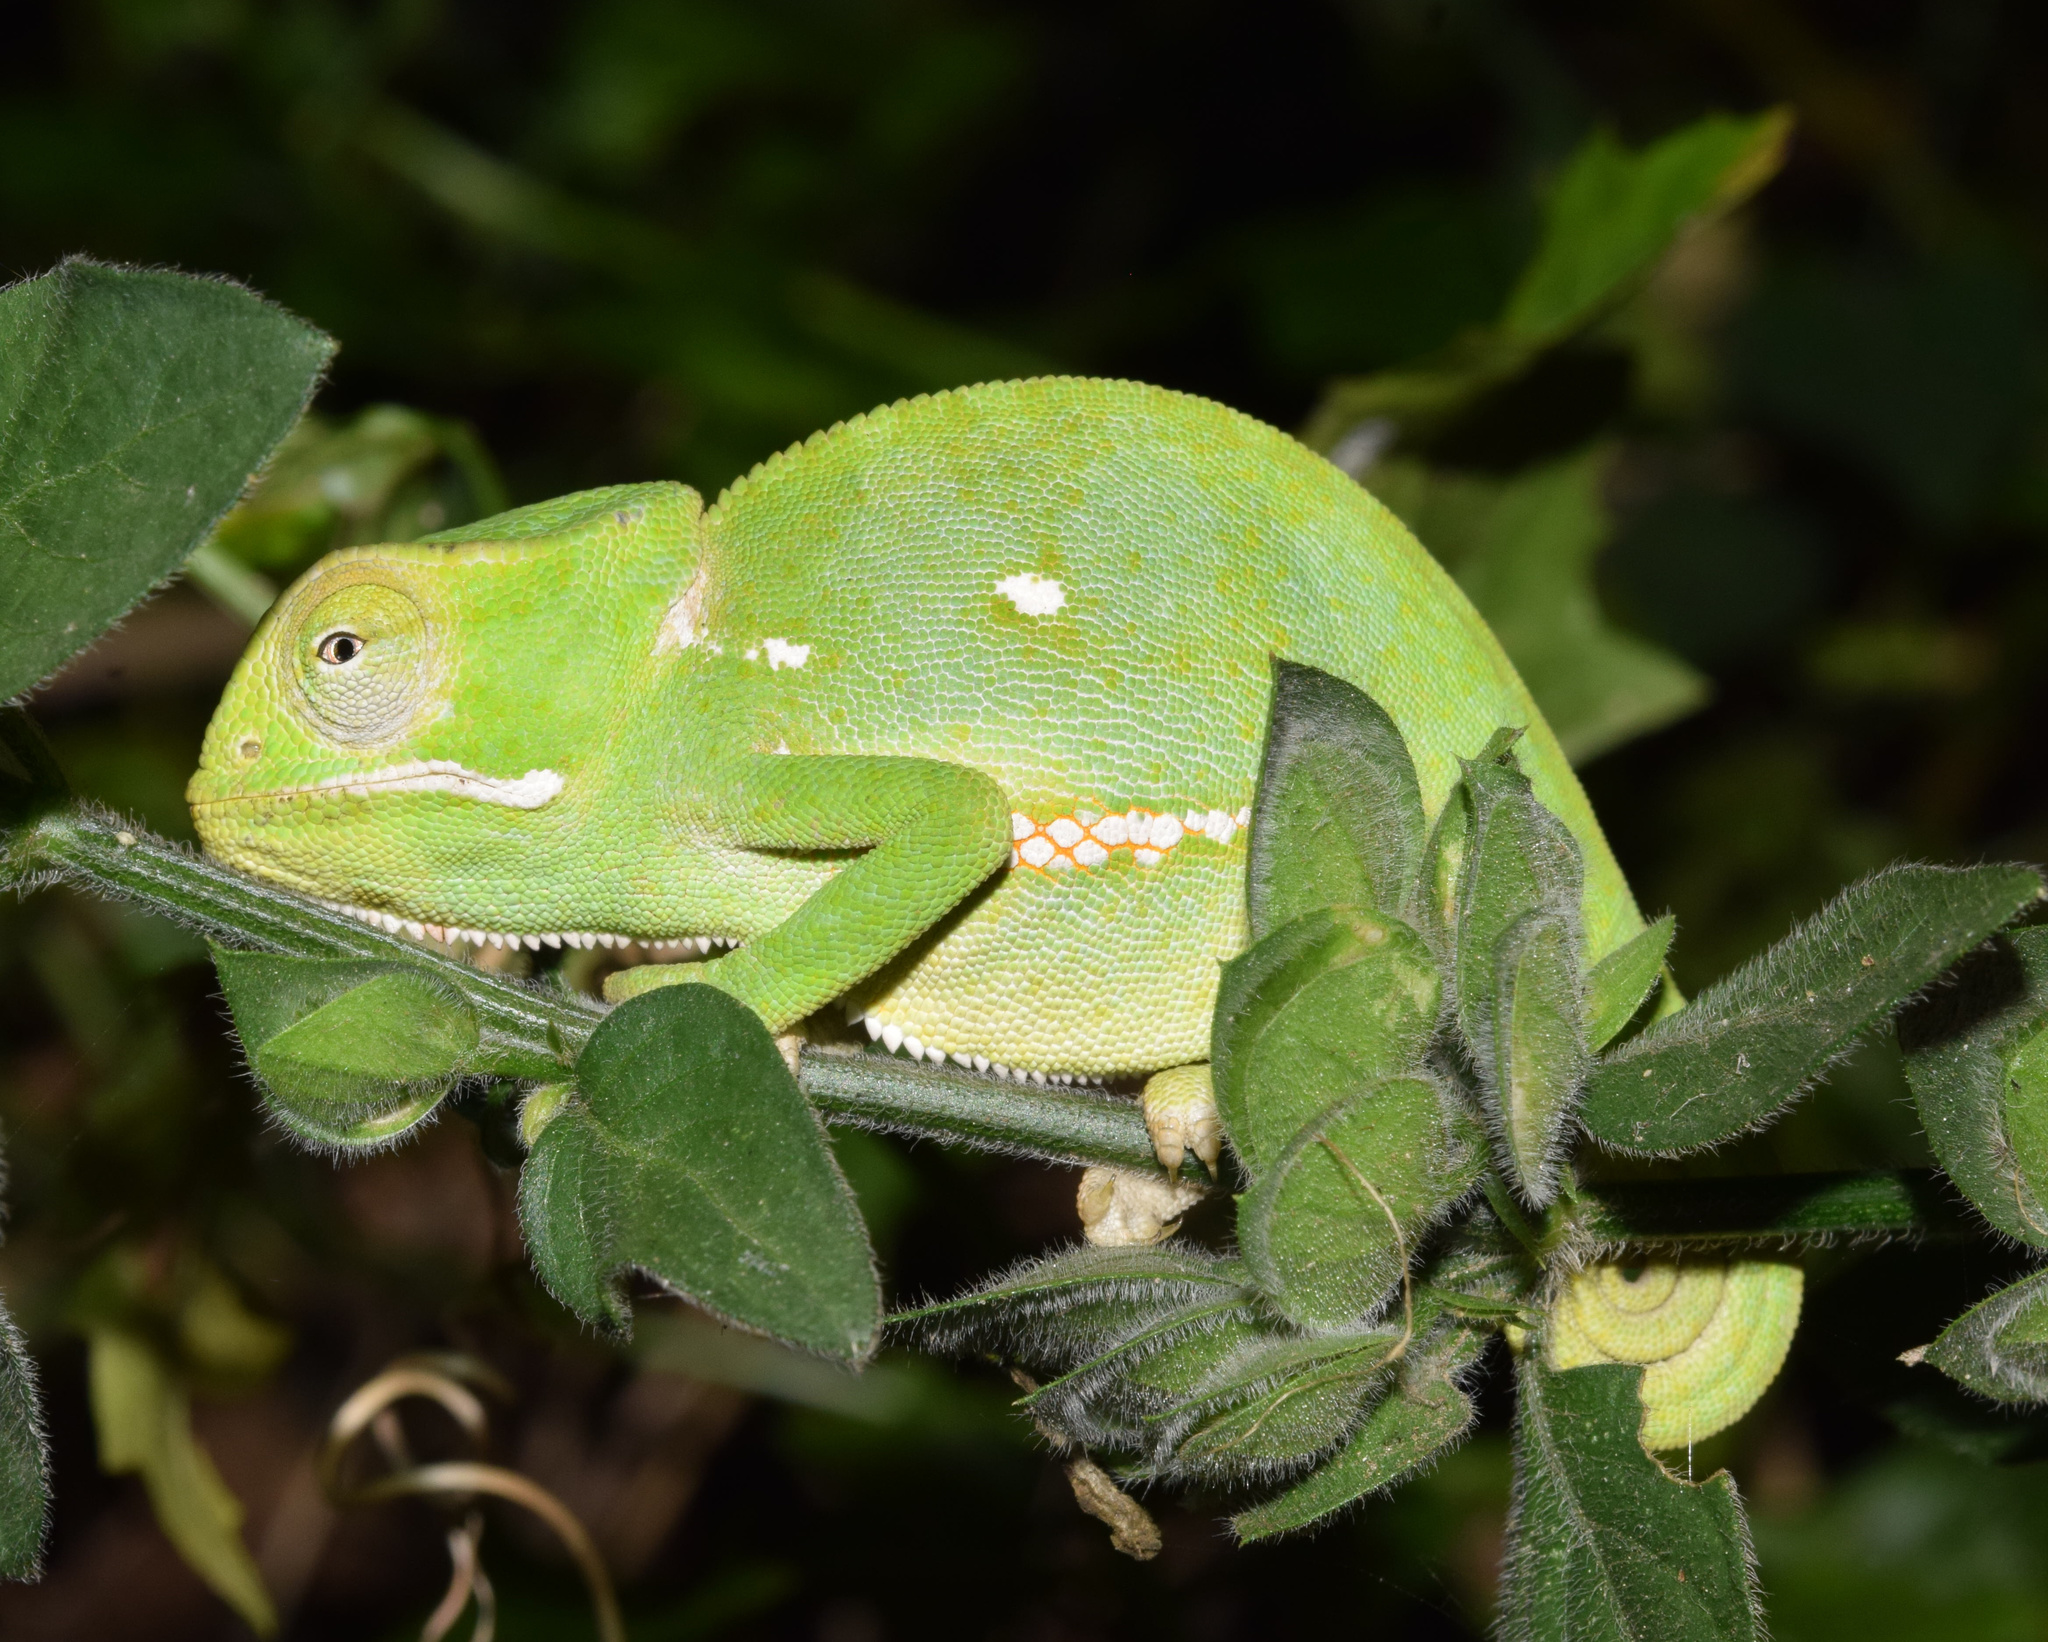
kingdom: Animalia
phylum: Chordata
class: Squamata
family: Chamaeleonidae
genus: Chamaeleo
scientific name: Chamaeleo dilepis
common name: Flapneck chameleon
